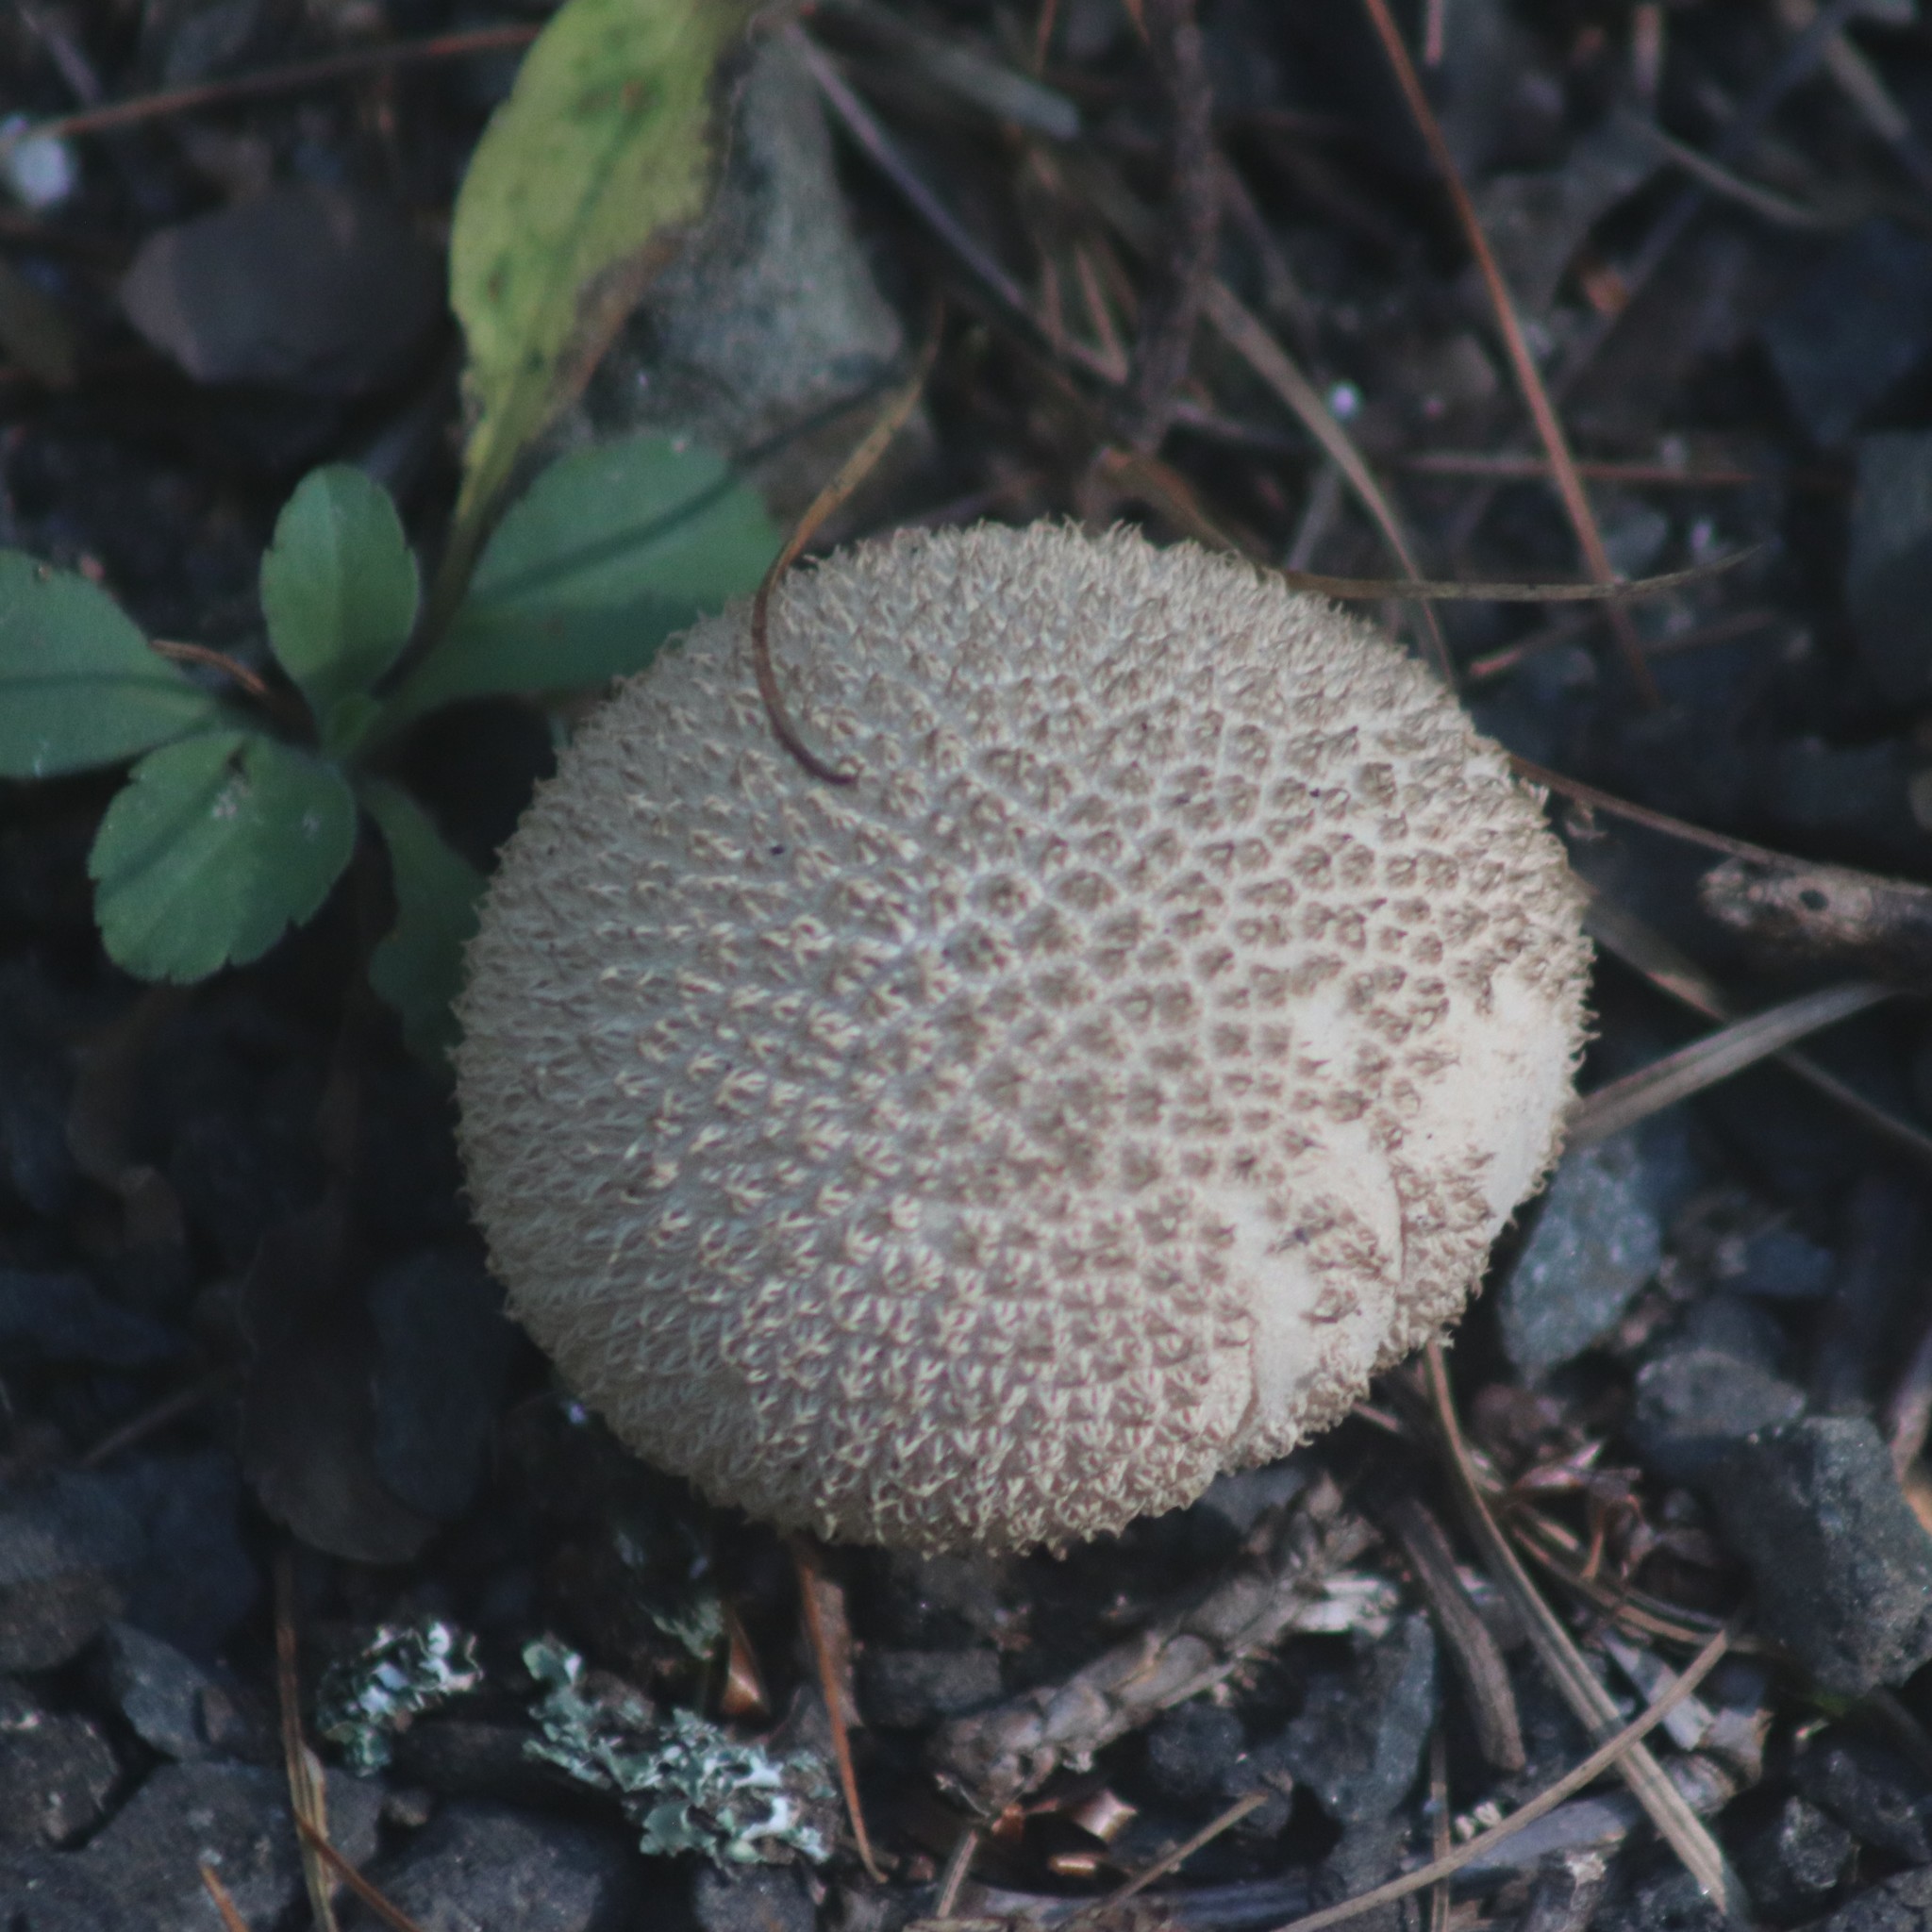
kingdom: Fungi
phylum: Basidiomycota
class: Agaricomycetes
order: Agaricales
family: Lycoperdaceae
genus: Lycoperdon
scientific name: Lycoperdon echinatum
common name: Hedgehog puffball
